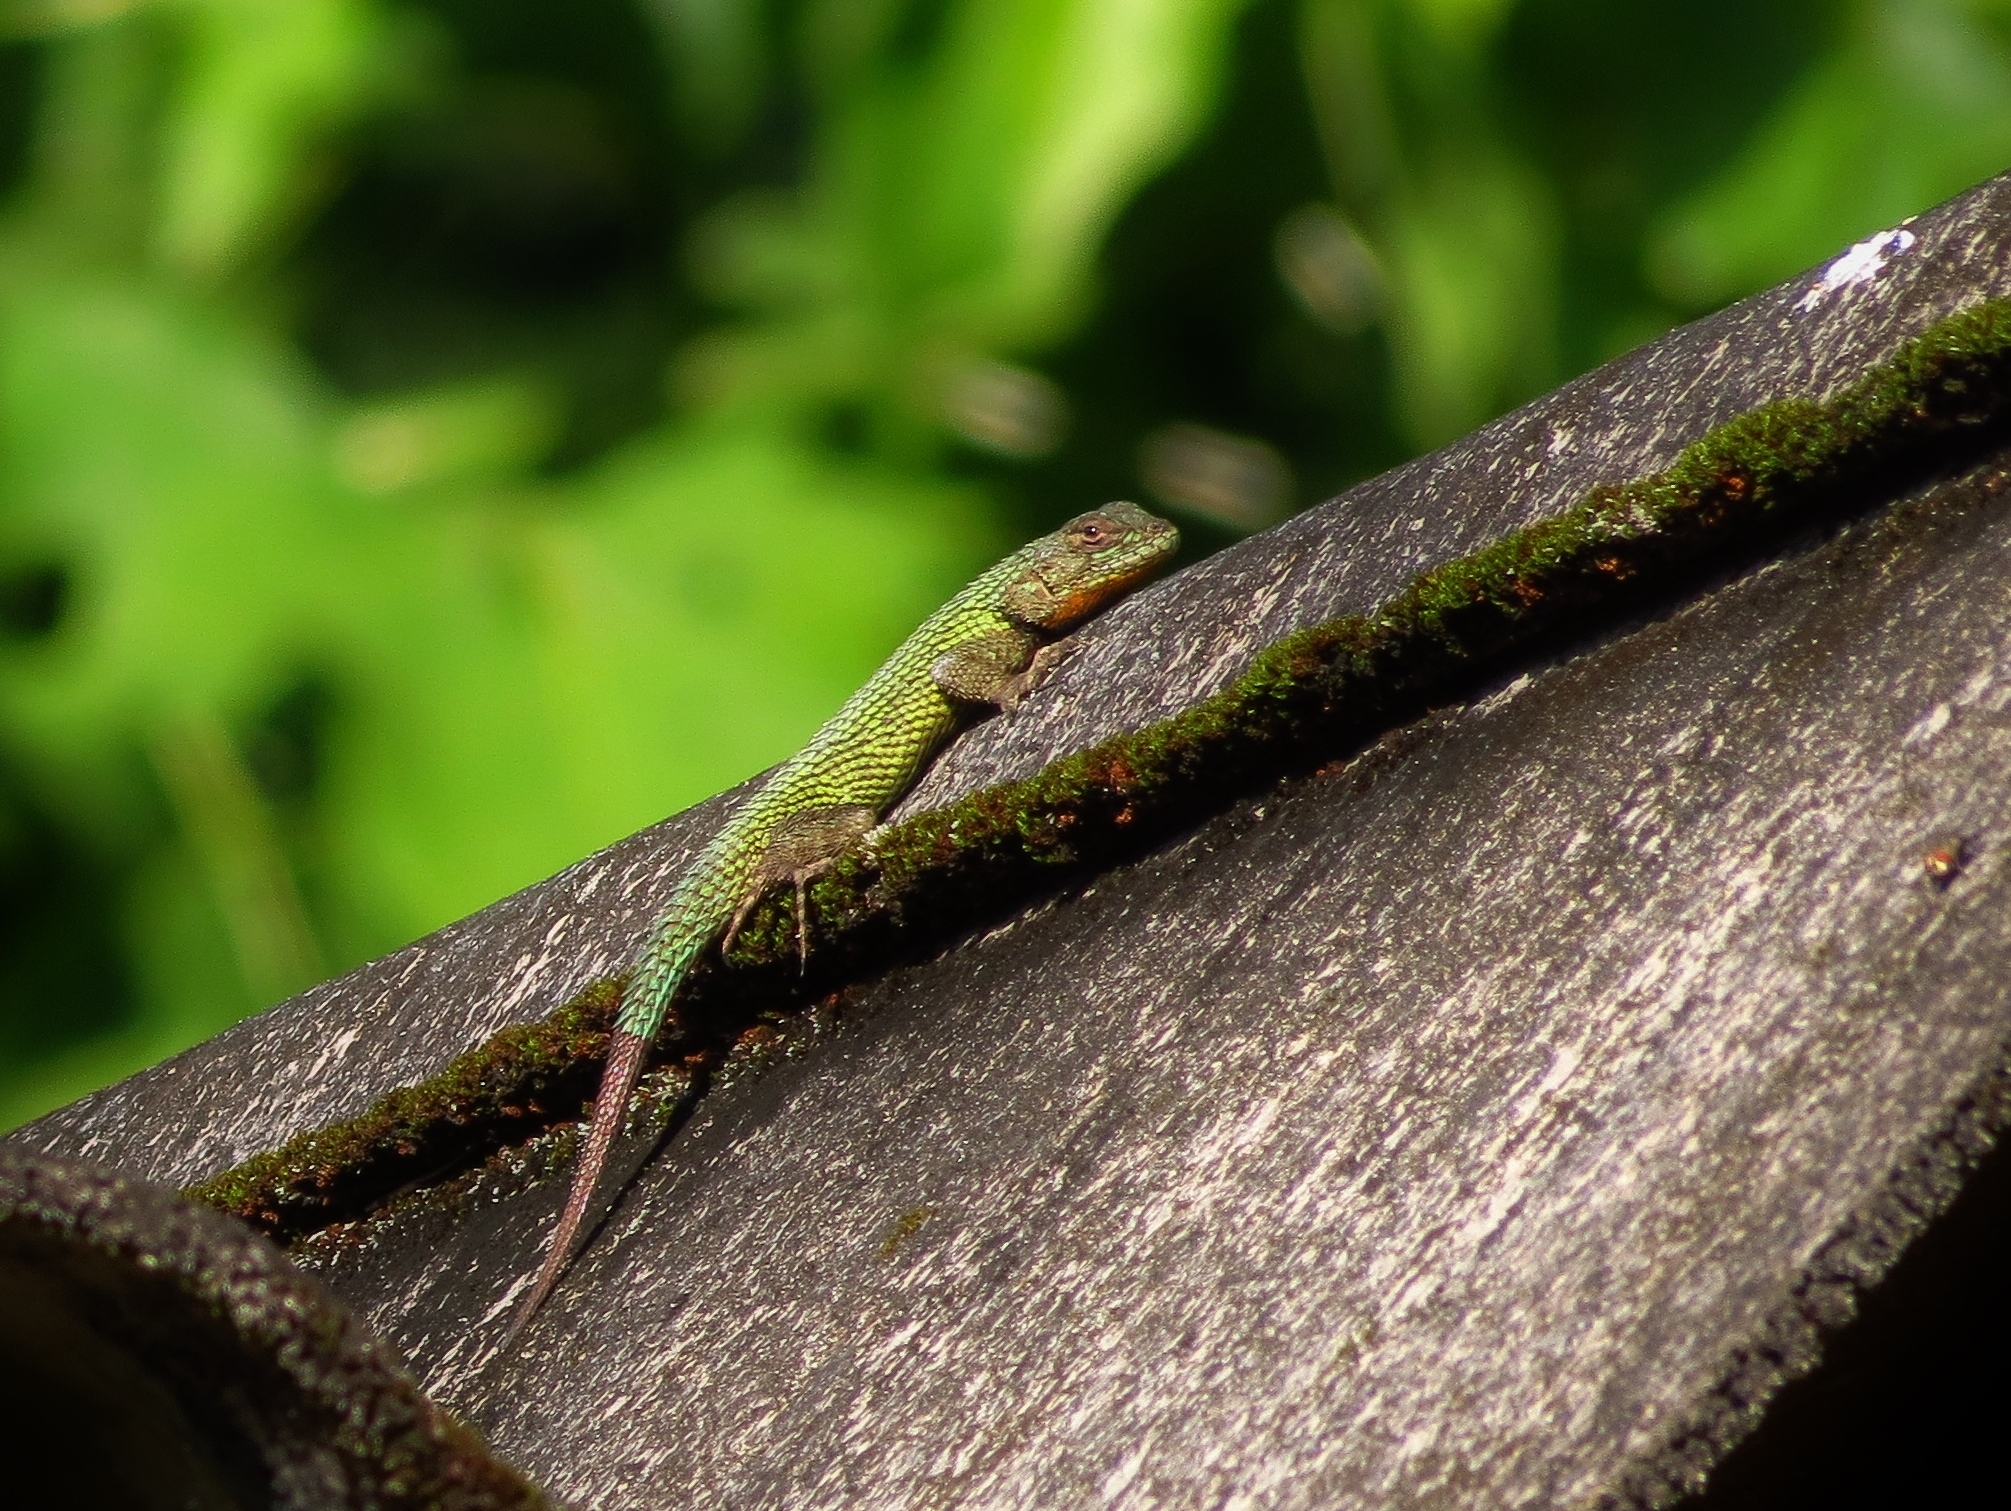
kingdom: Animalia
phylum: Chordata
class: Squamata
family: Phrynosomatidae
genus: Sceloporus
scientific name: Sceloporus malachiticus
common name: Green spiny lizard
